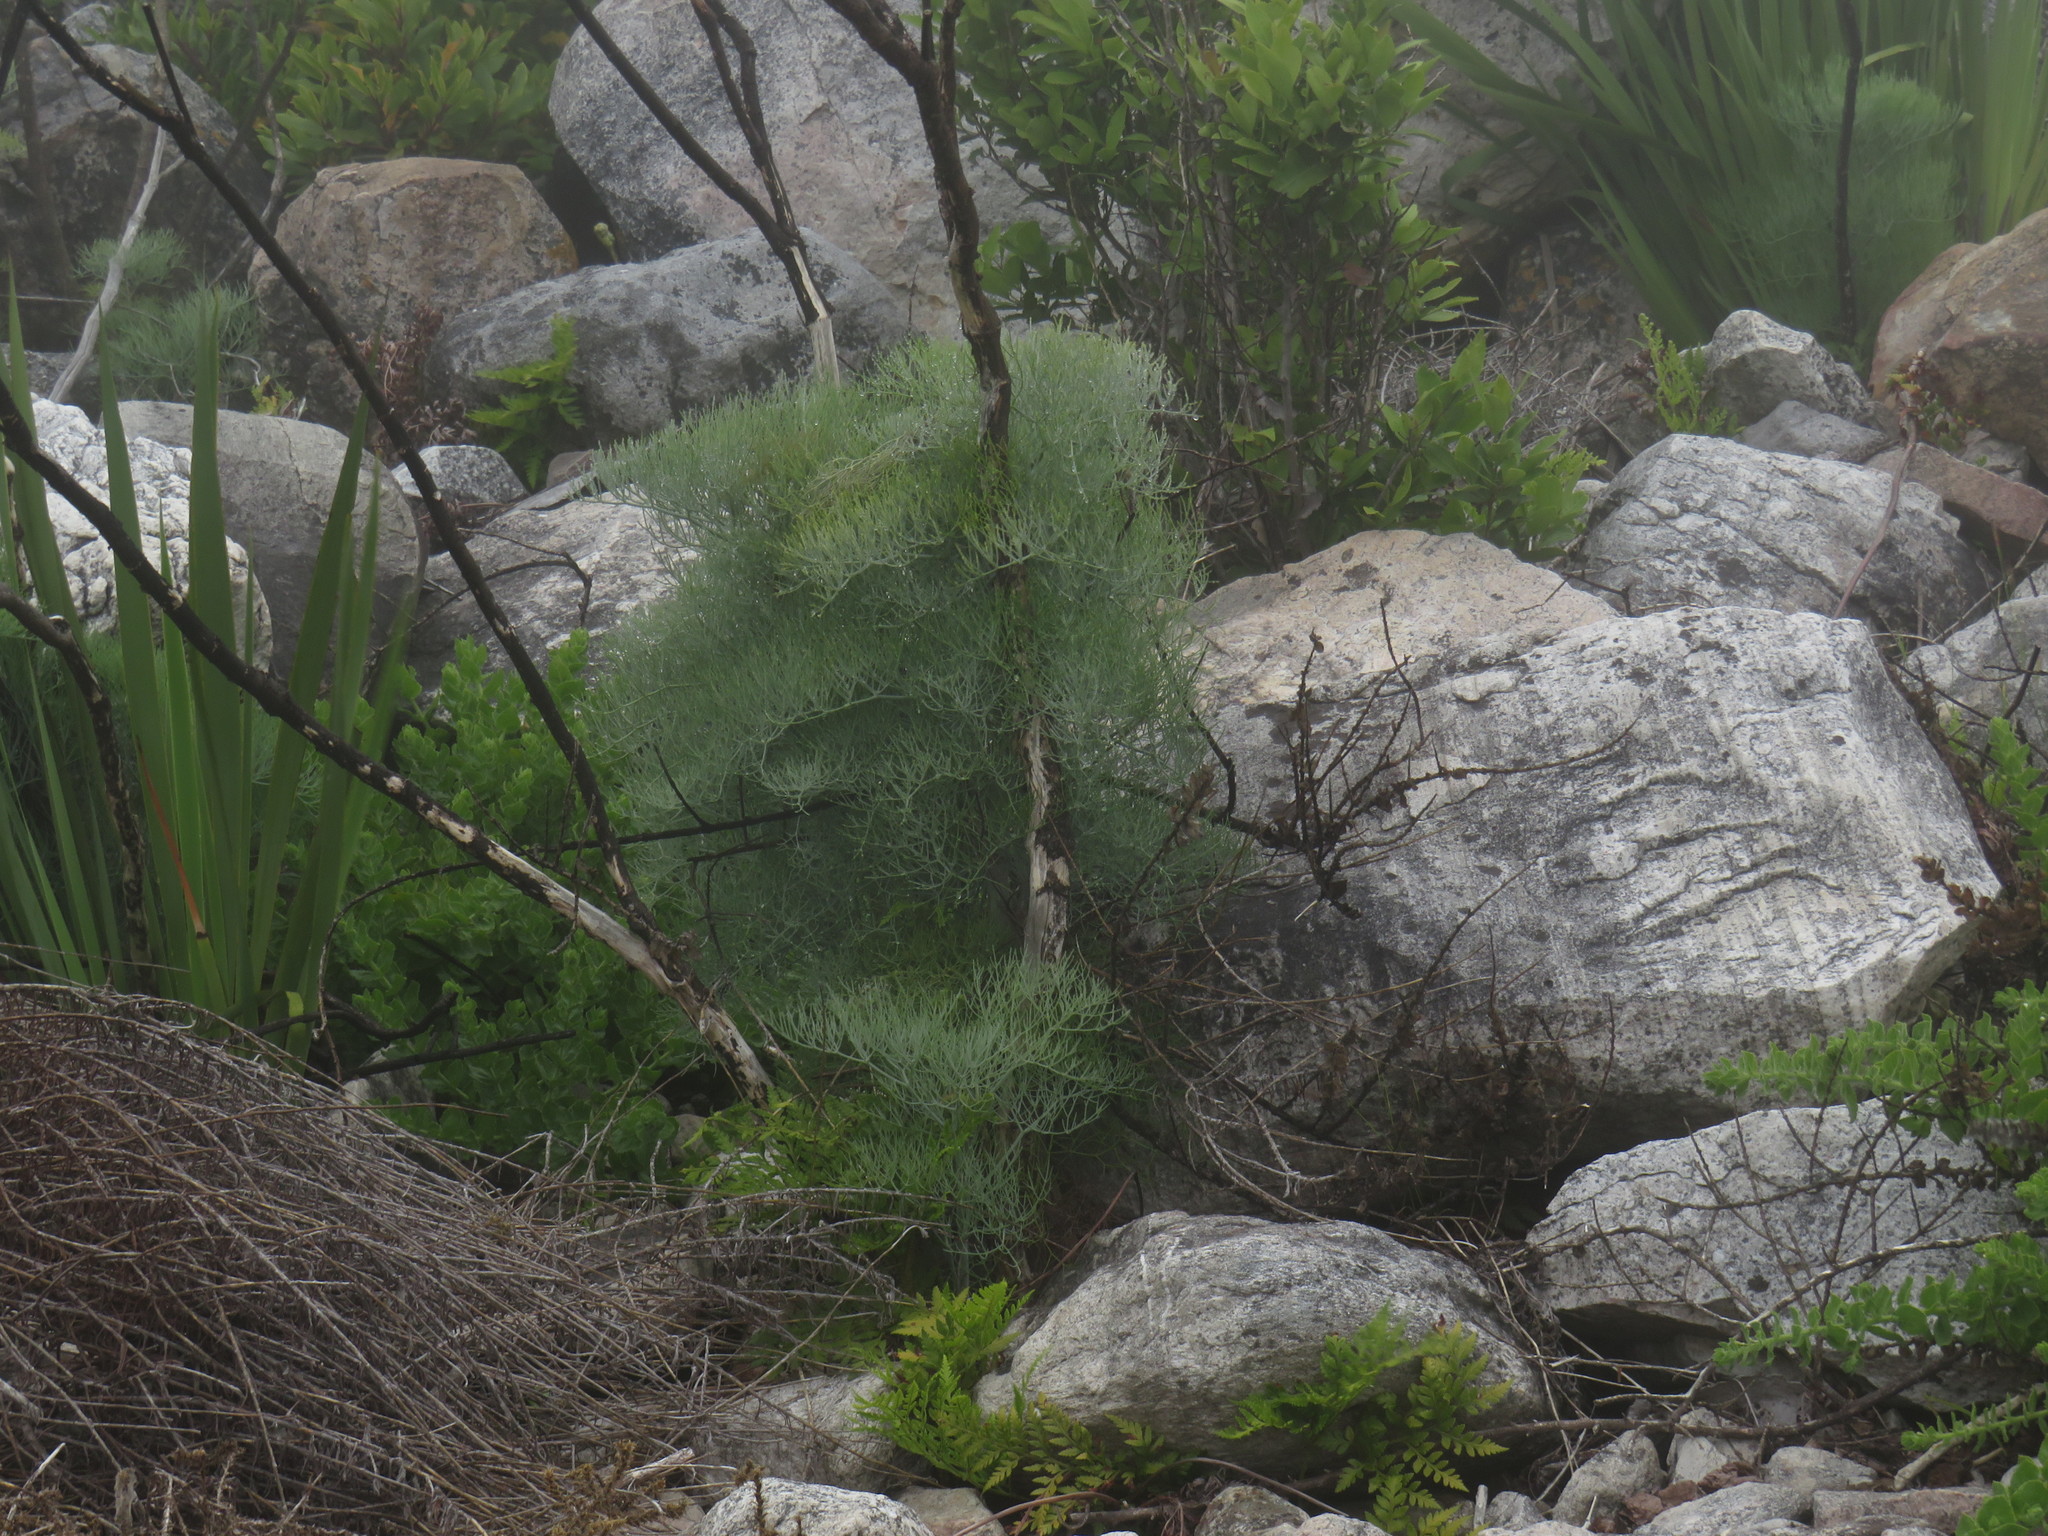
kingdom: Plantae
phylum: Tracheophyta
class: Magnoliopsida
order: Apiales
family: Apiaceae
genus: Notobubon
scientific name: Notobubon capense
